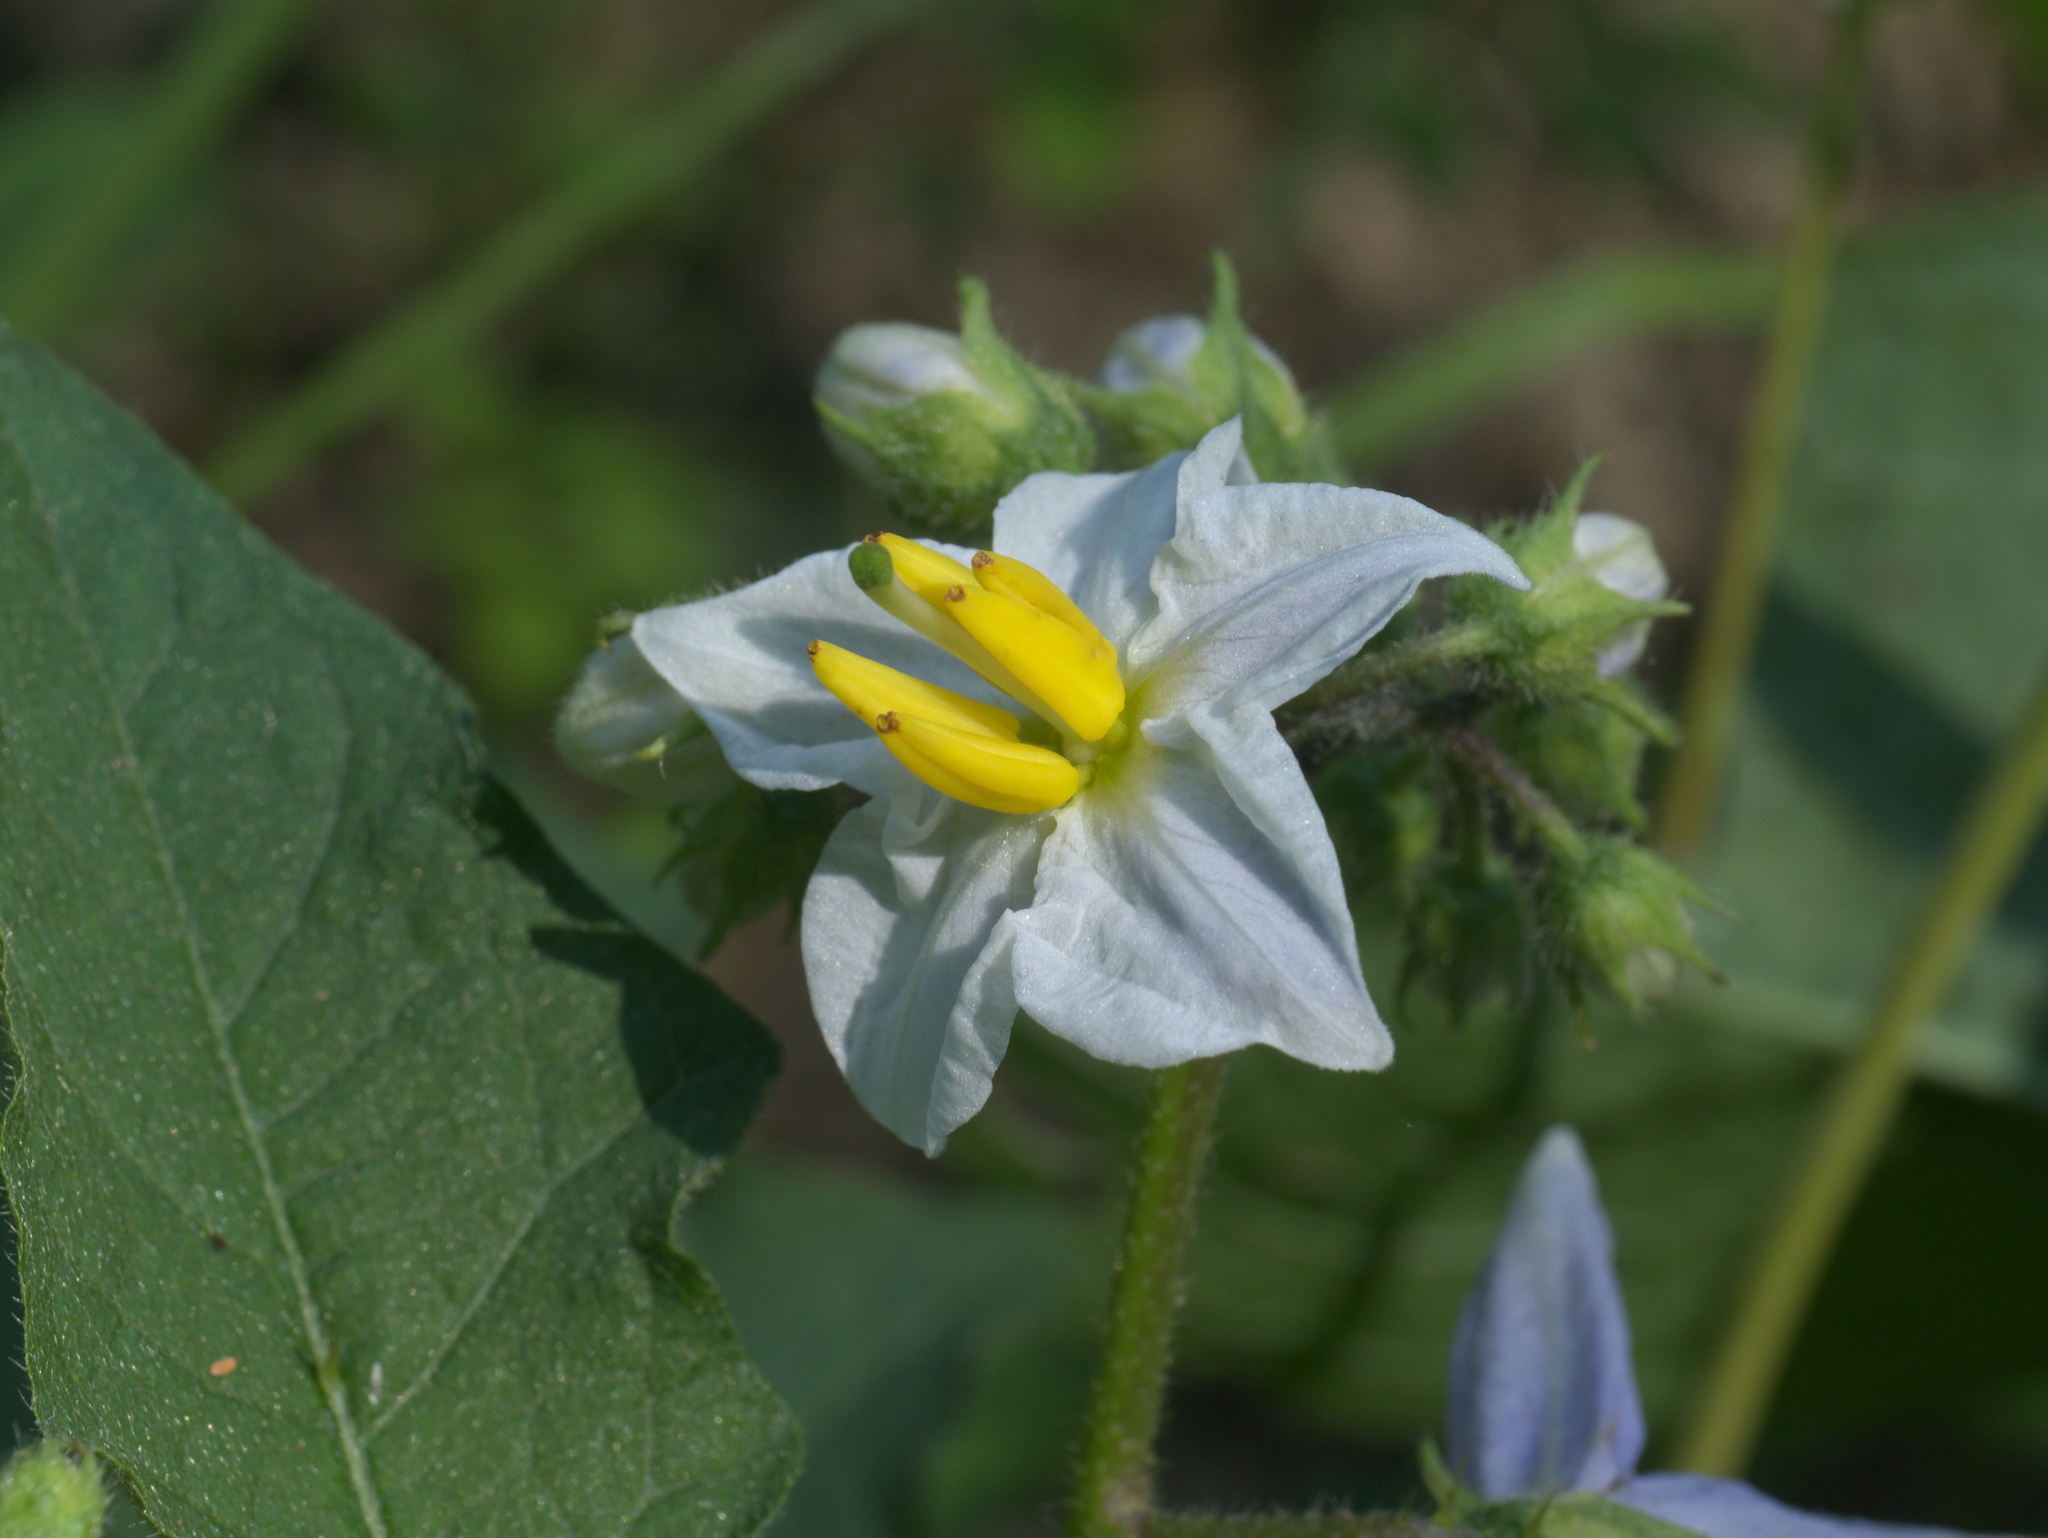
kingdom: Plantae
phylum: Tracheophyta
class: Magnoliopsida
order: Solanales
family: Solanaceae
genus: Solanum
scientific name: Solanum carolinense
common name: Horse-nettle
